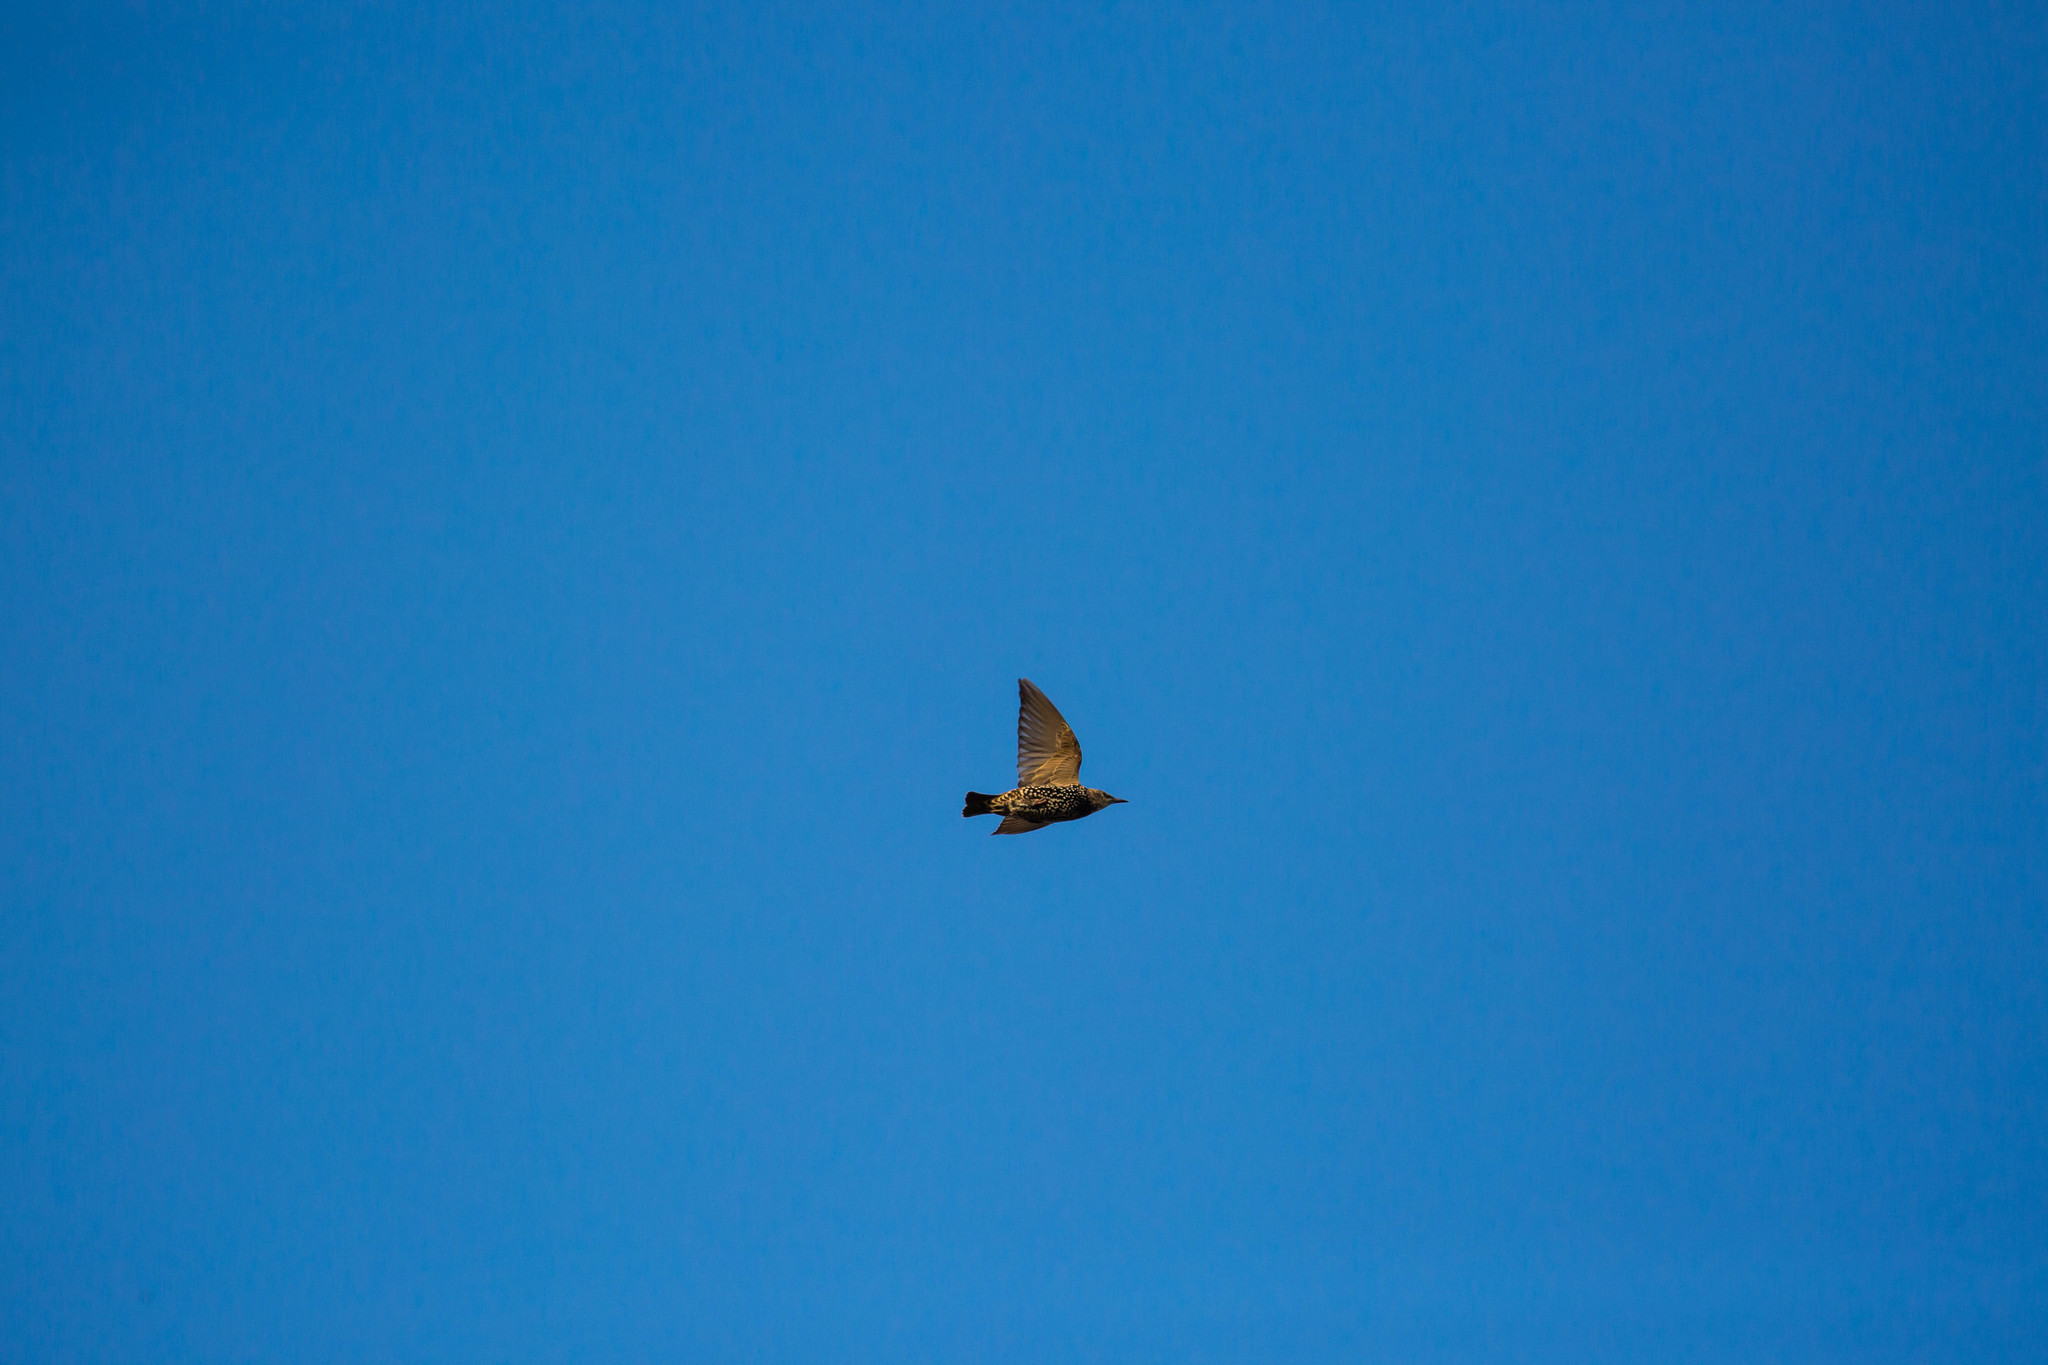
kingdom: Animalia
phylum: Chordata
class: Aves
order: Passeriformes
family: Sturnidae
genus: Sturnus
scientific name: Sturnus vulgaris
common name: Common starling
